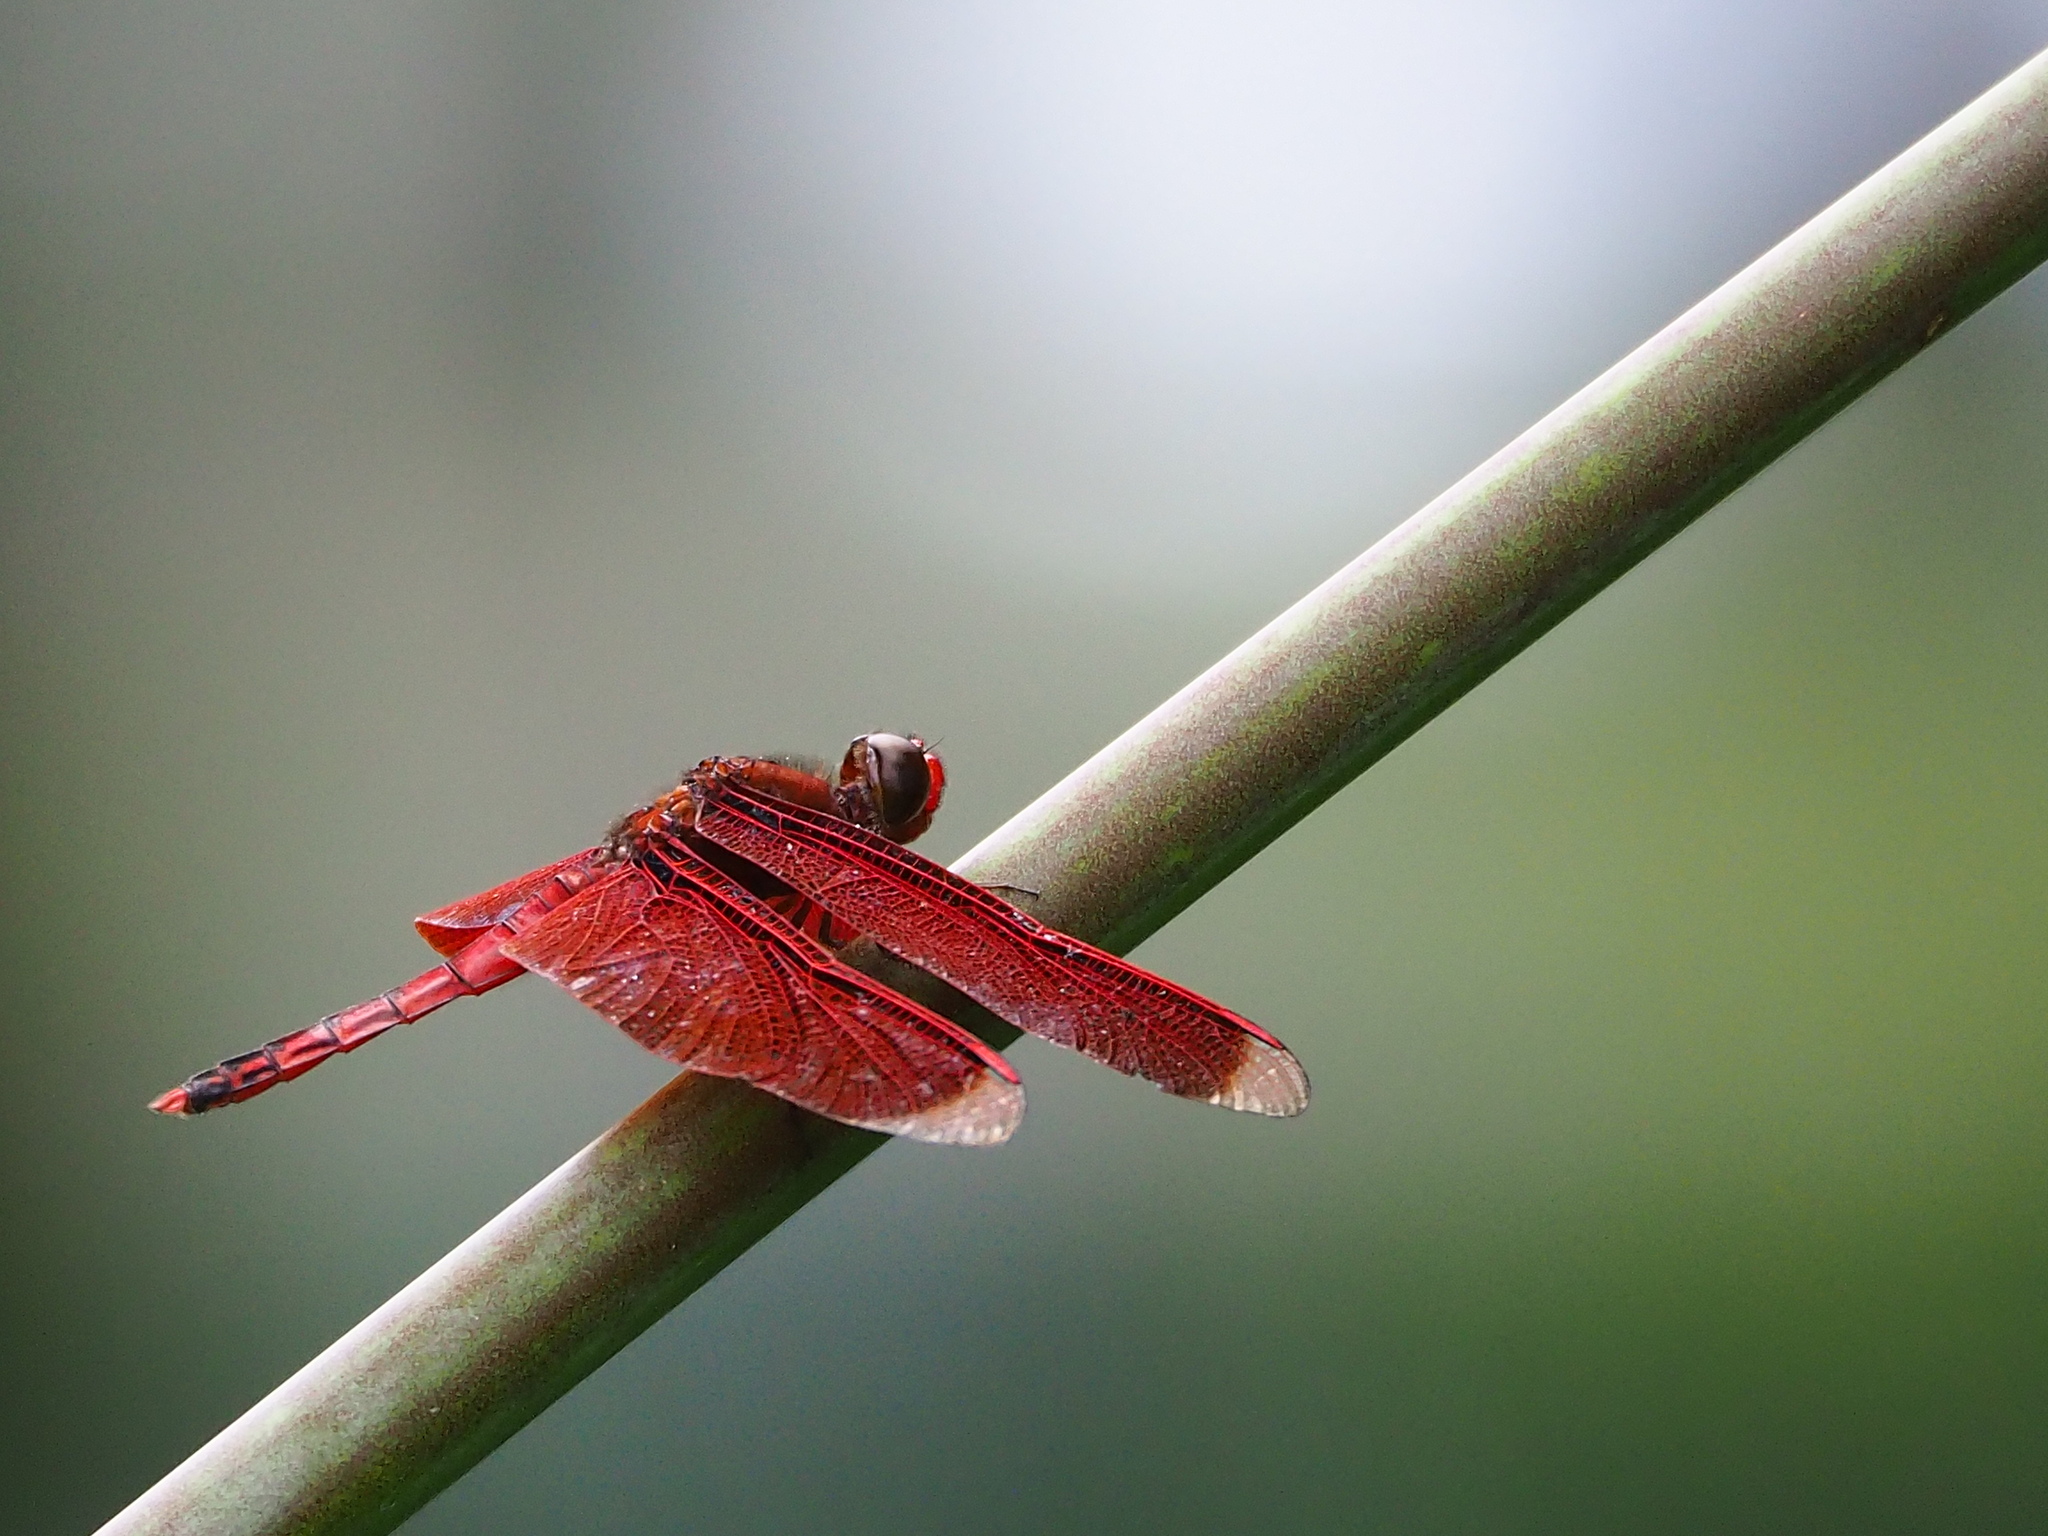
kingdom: Animalia
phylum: Arthropoda
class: Insecta
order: Odonata
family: Libellulidae
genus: Neurothemis
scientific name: Neurothemis taiwanensis
